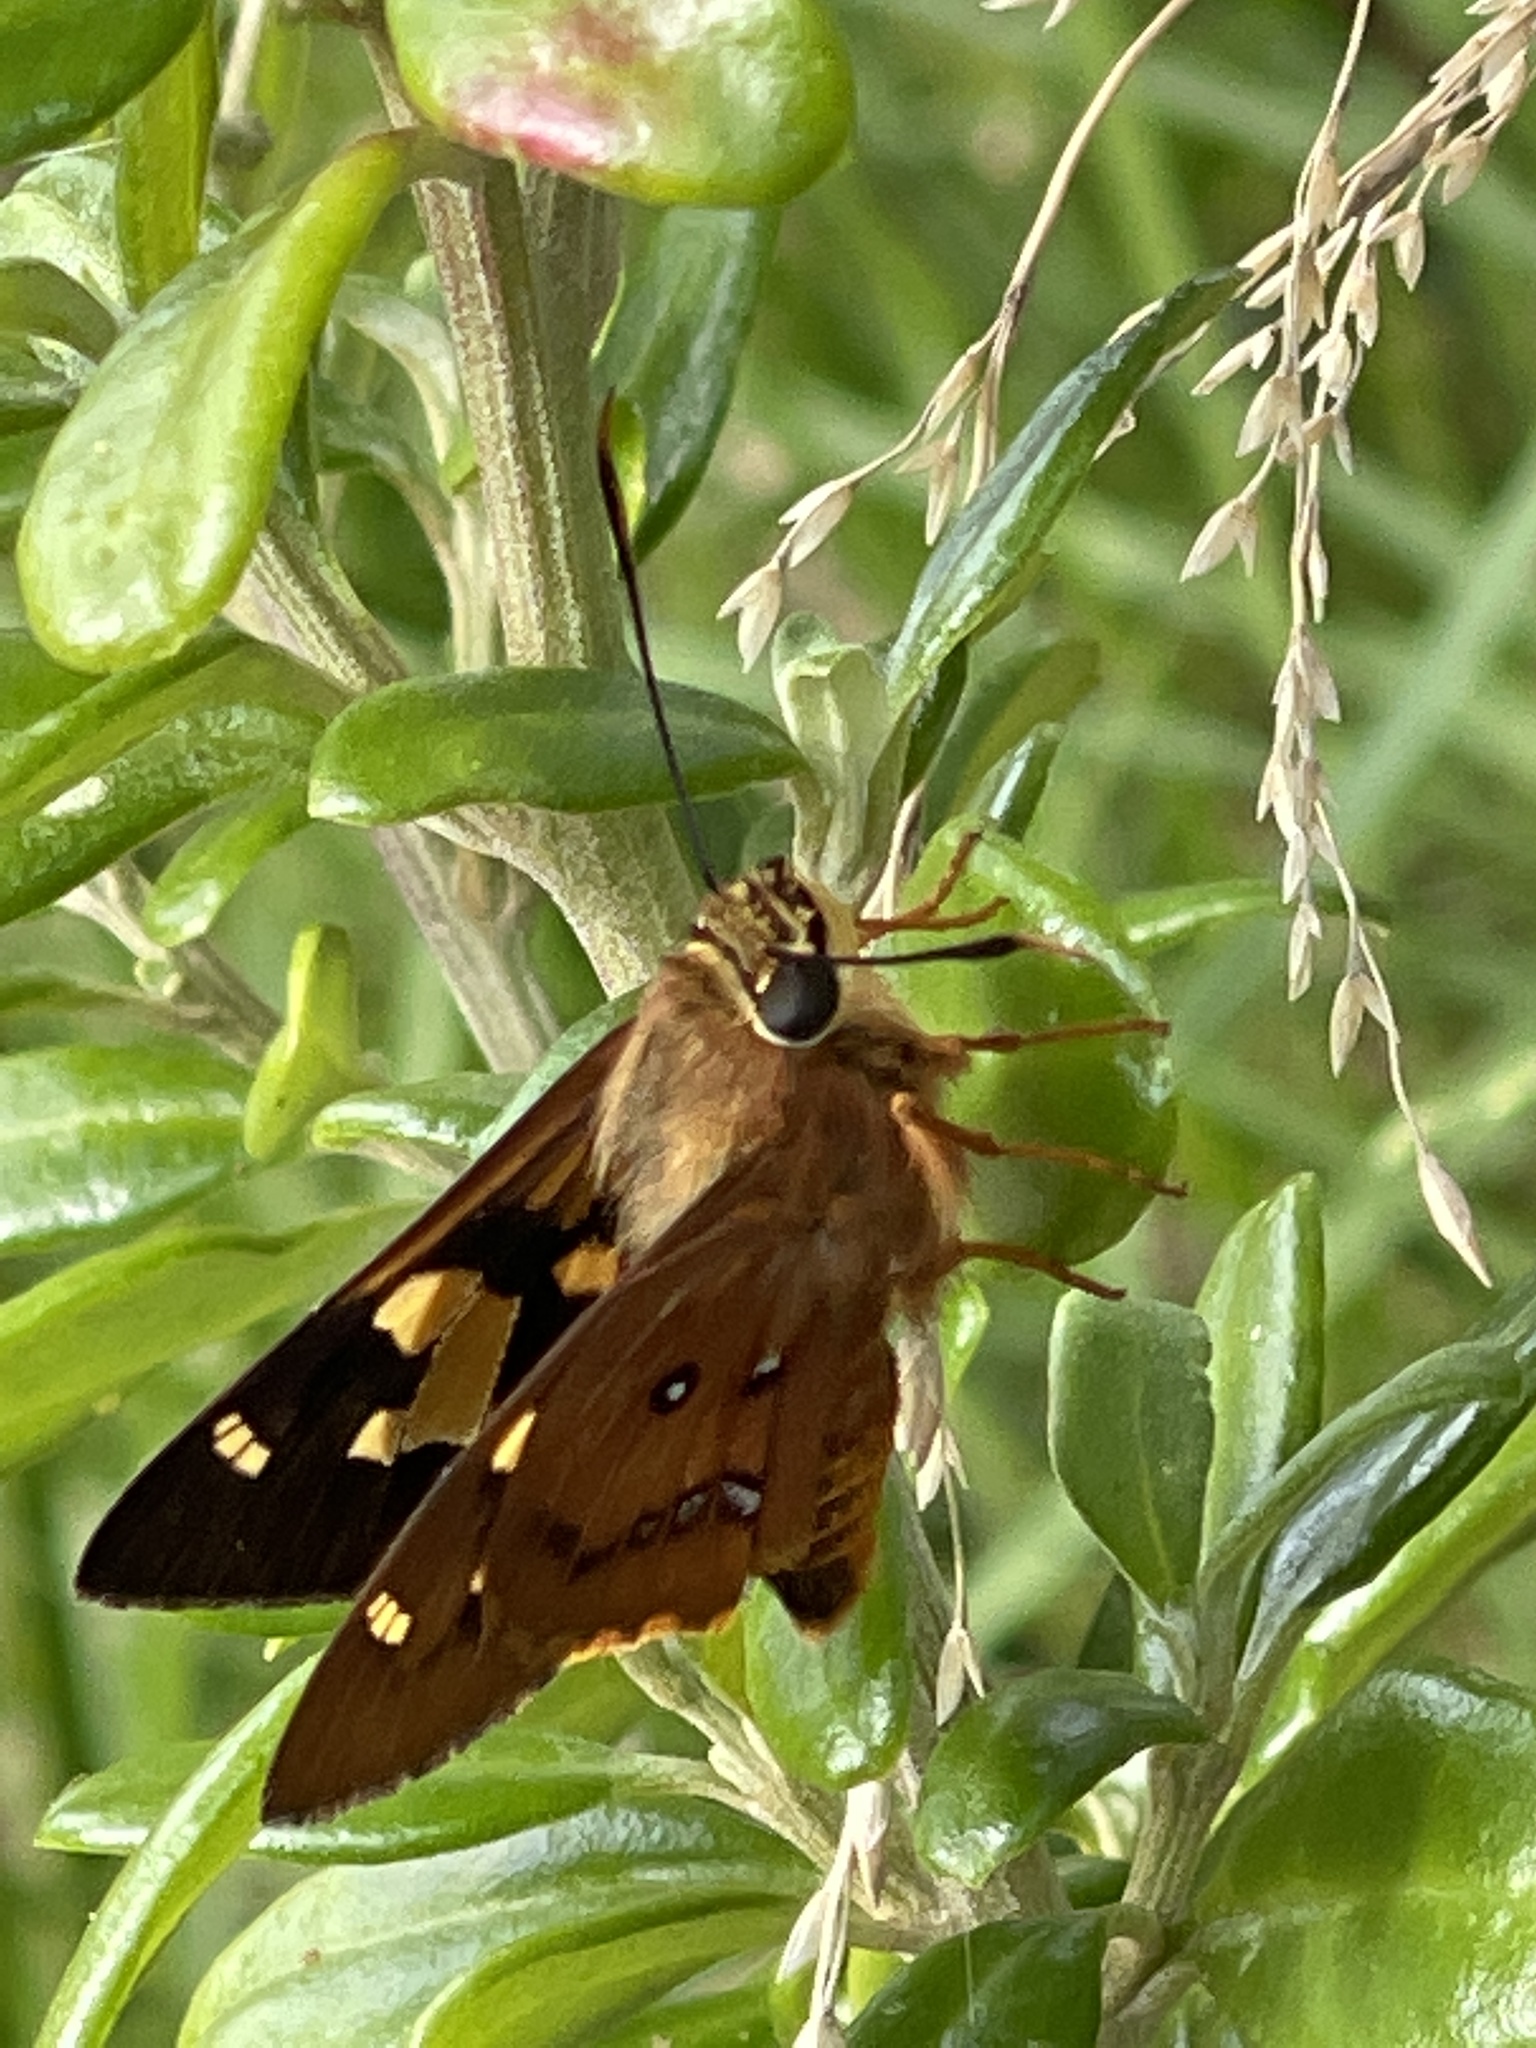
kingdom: Animalia
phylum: Arthropoda
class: Insecta
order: Lepidoptera
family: Hesperiidae
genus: Trapezites
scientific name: Trapezites symmomus
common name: Splendid ochre
